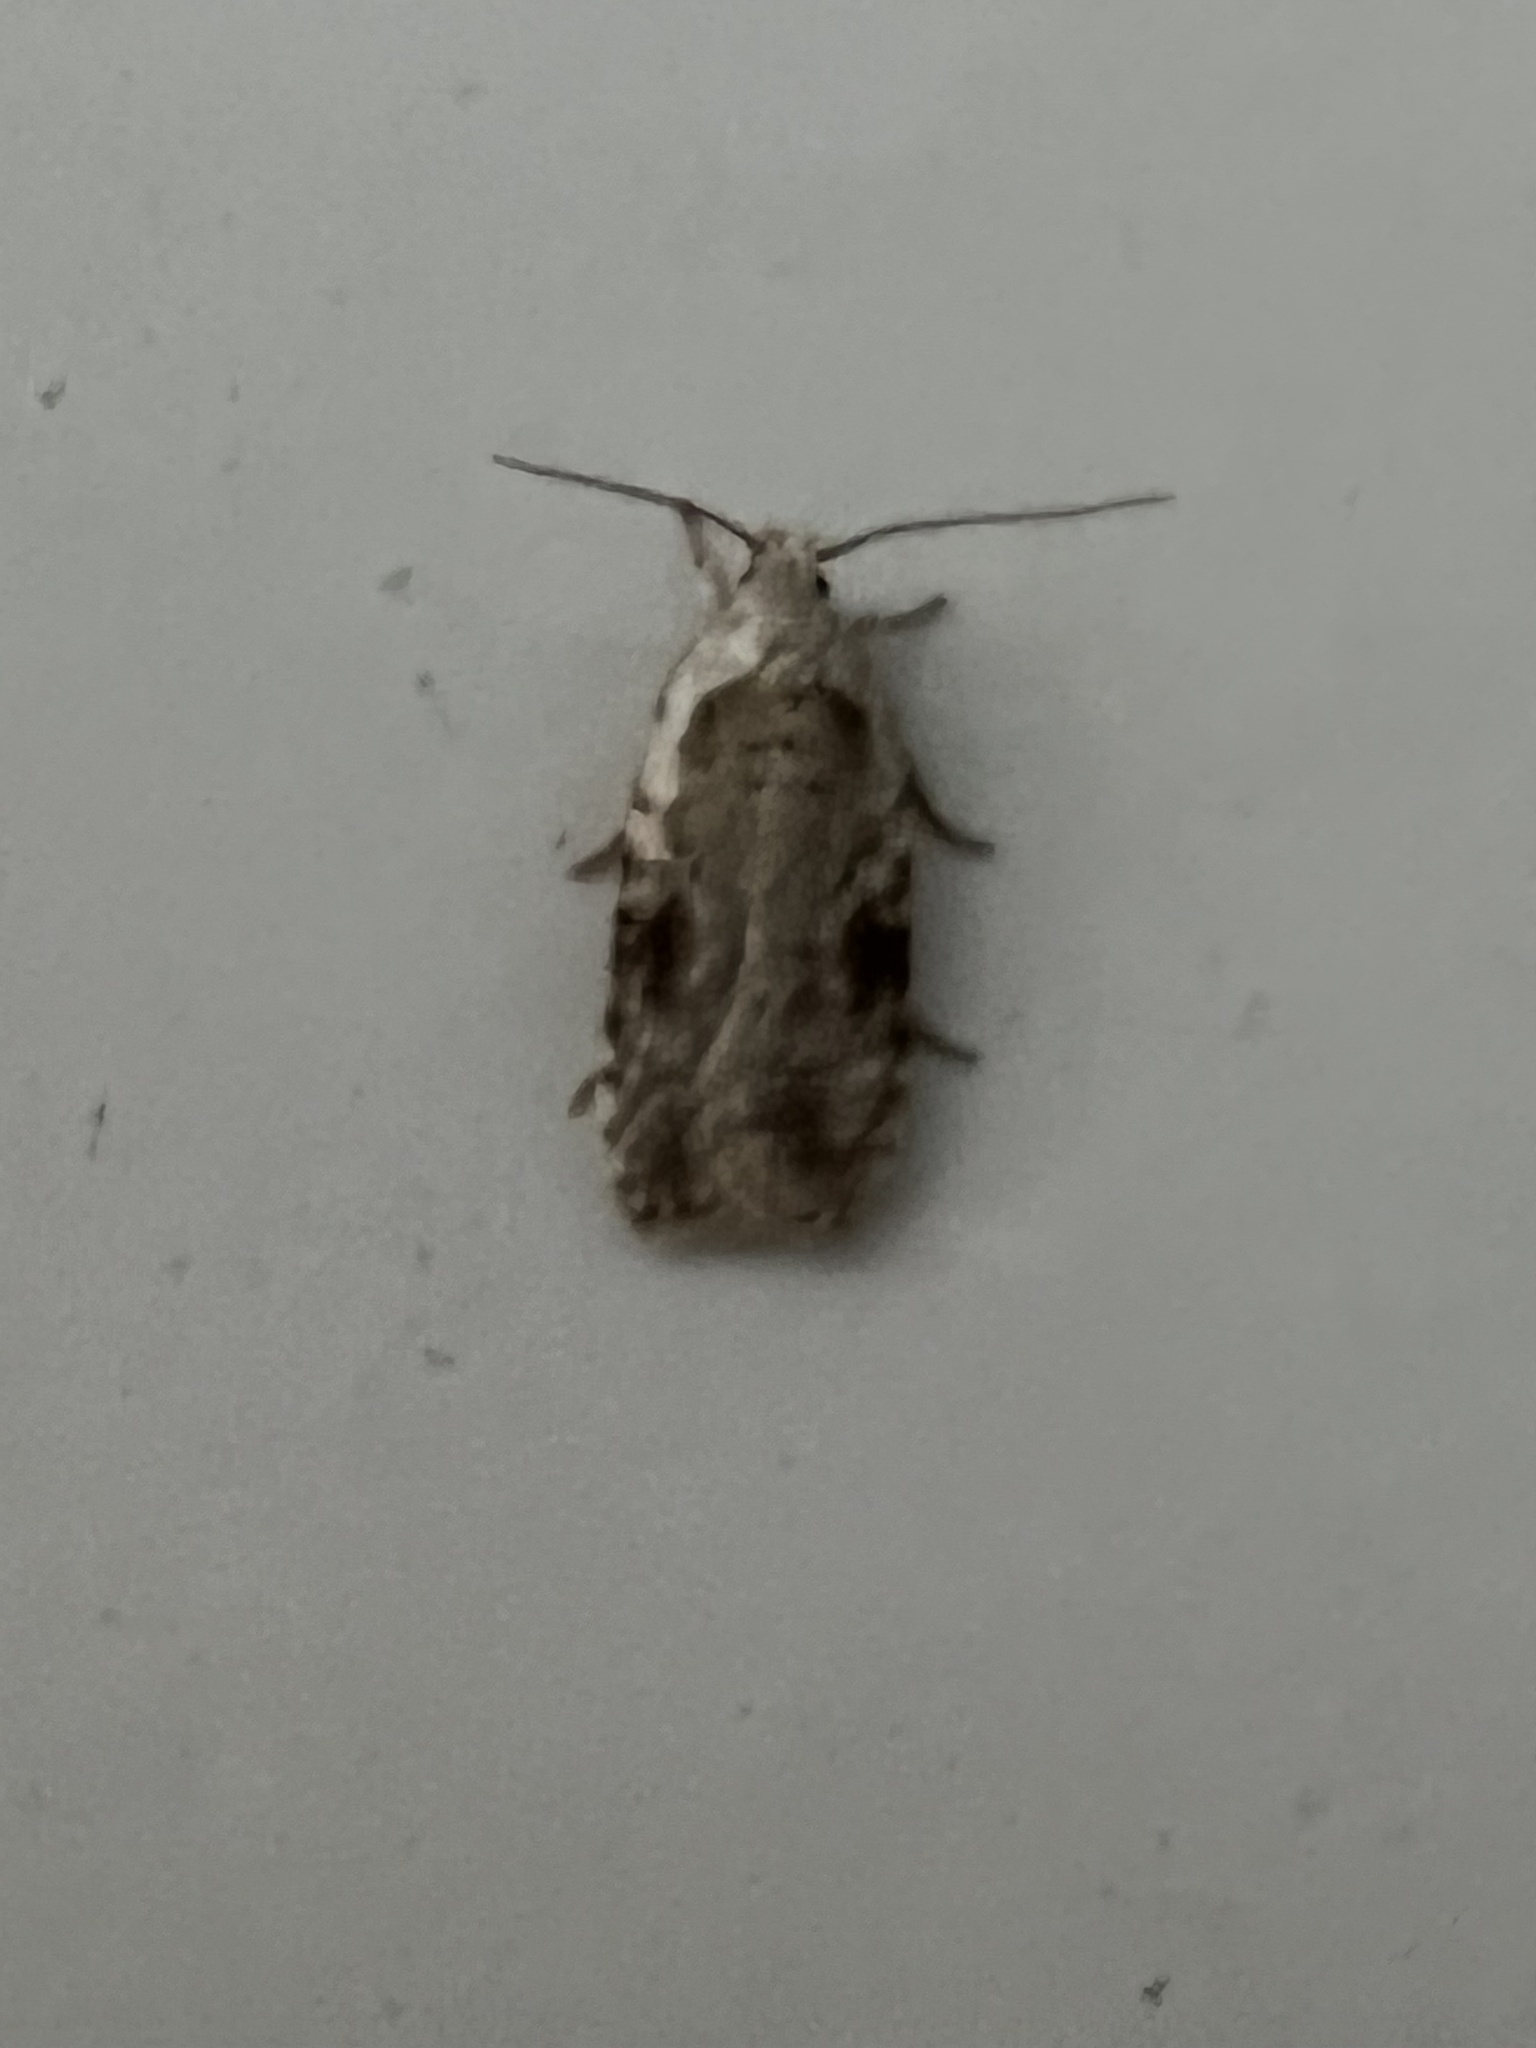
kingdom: Animalia
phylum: Arthropoda
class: Insecta
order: Lepidoptera
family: Depressariidae
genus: Agonopterix
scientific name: Agonopterix alstroemeriana
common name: Moth
